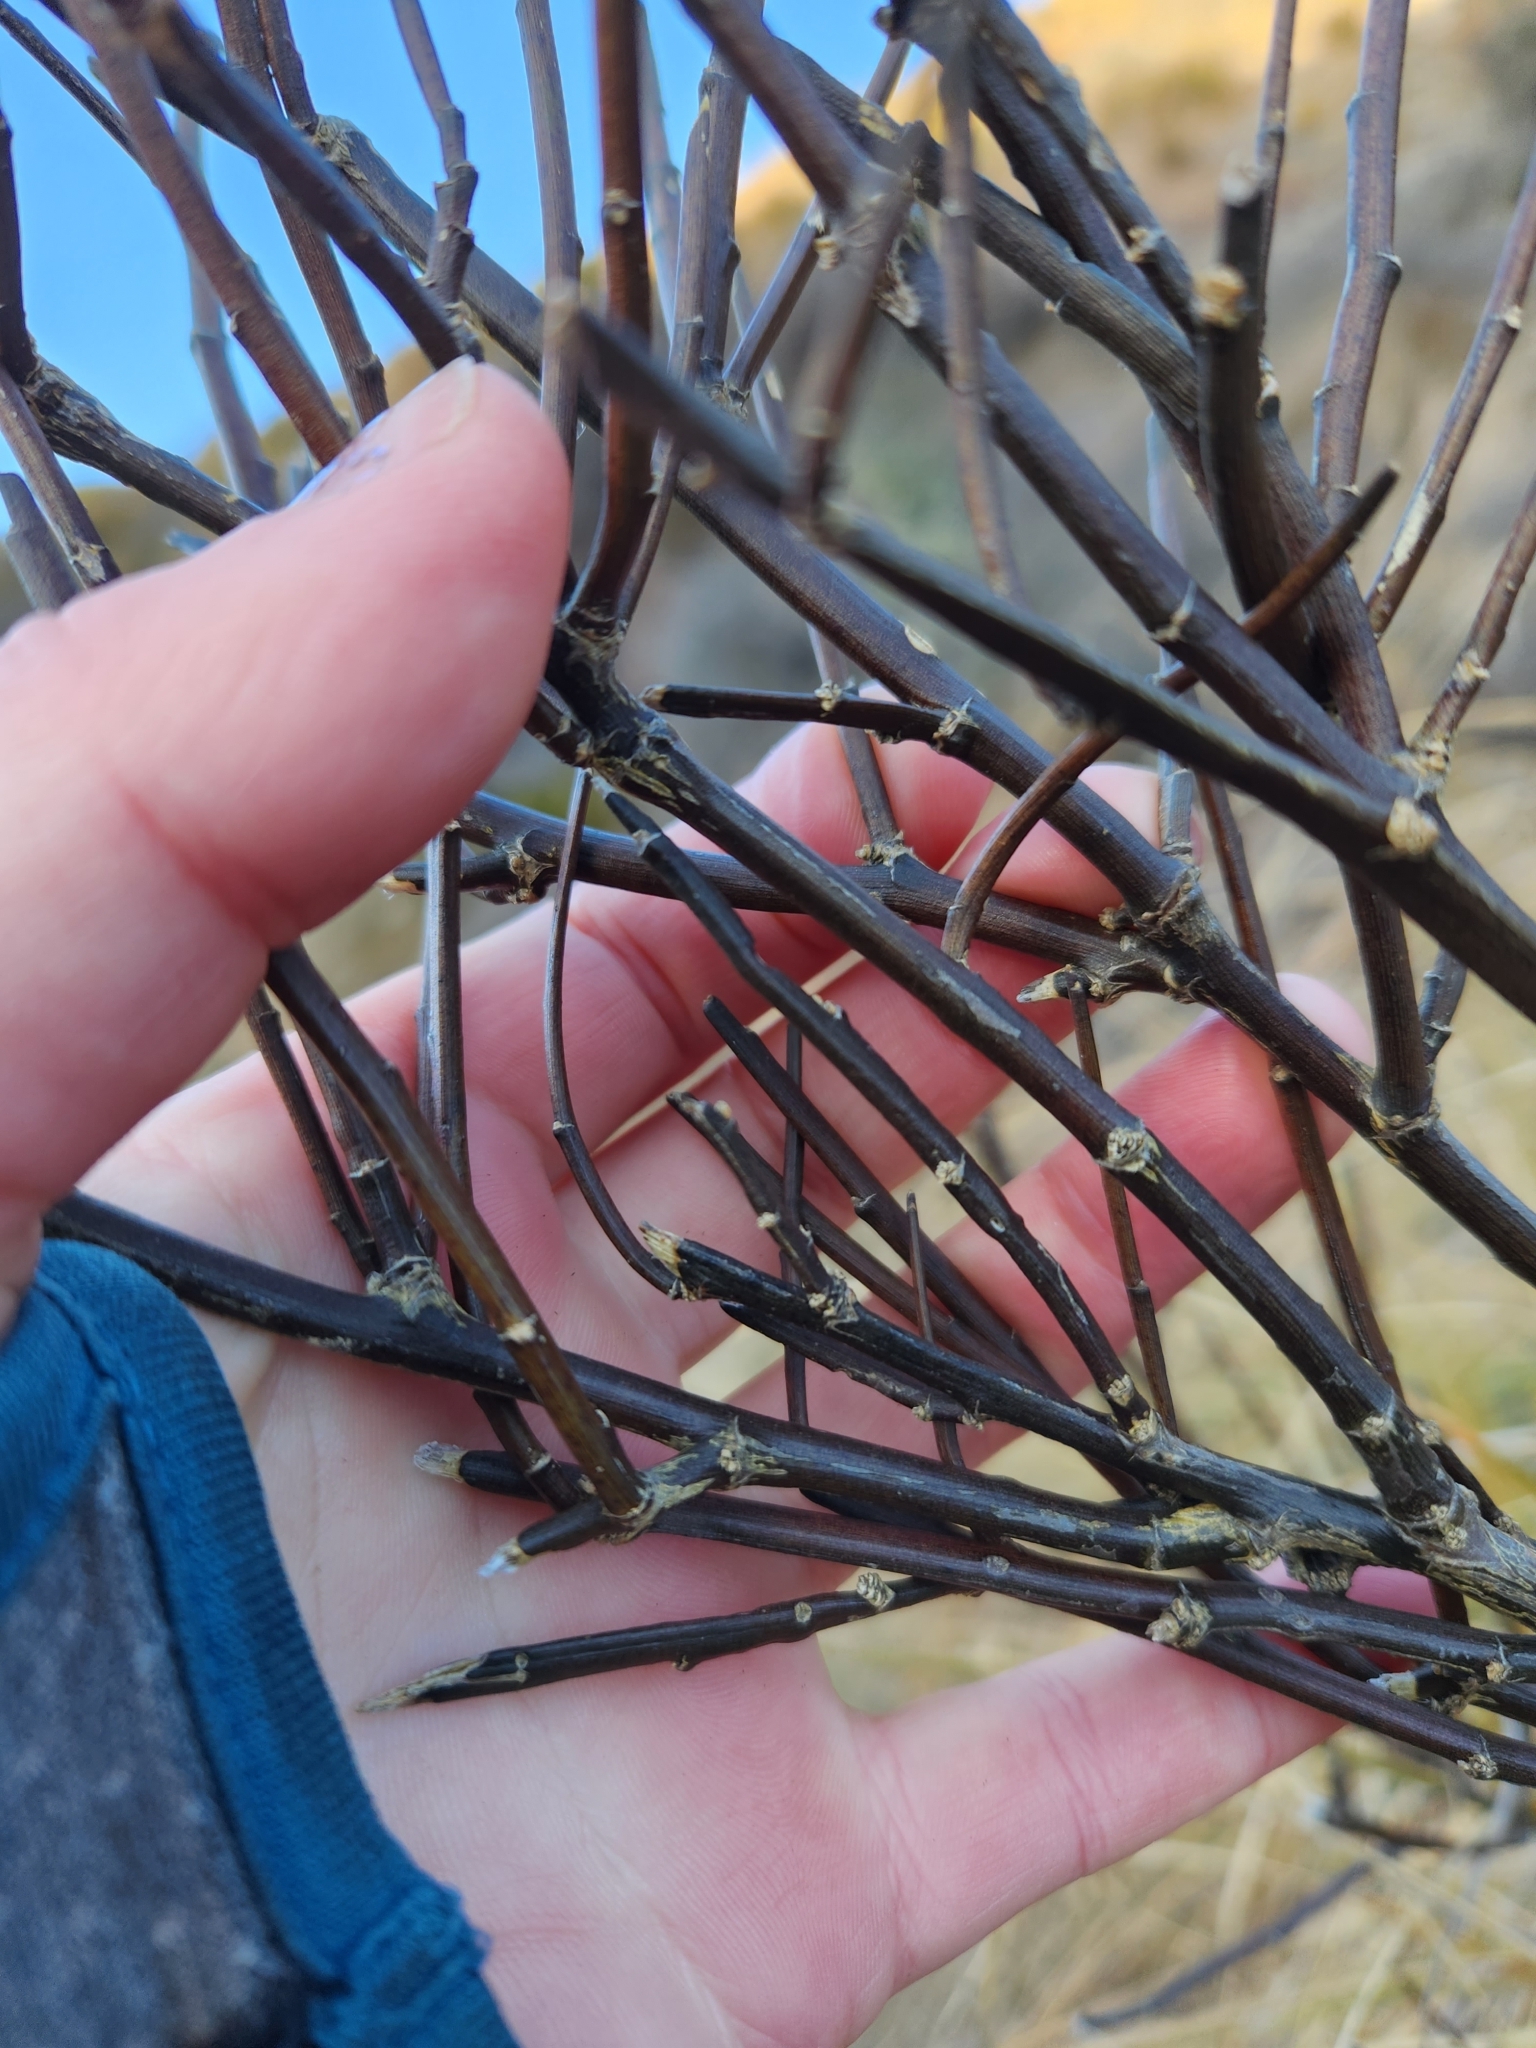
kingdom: Plantae
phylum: Tracheophyta
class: Magnoliopsida
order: Fabales
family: Fabaceae
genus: Carmichaelia
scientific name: Carmichaelia crassicaulis
